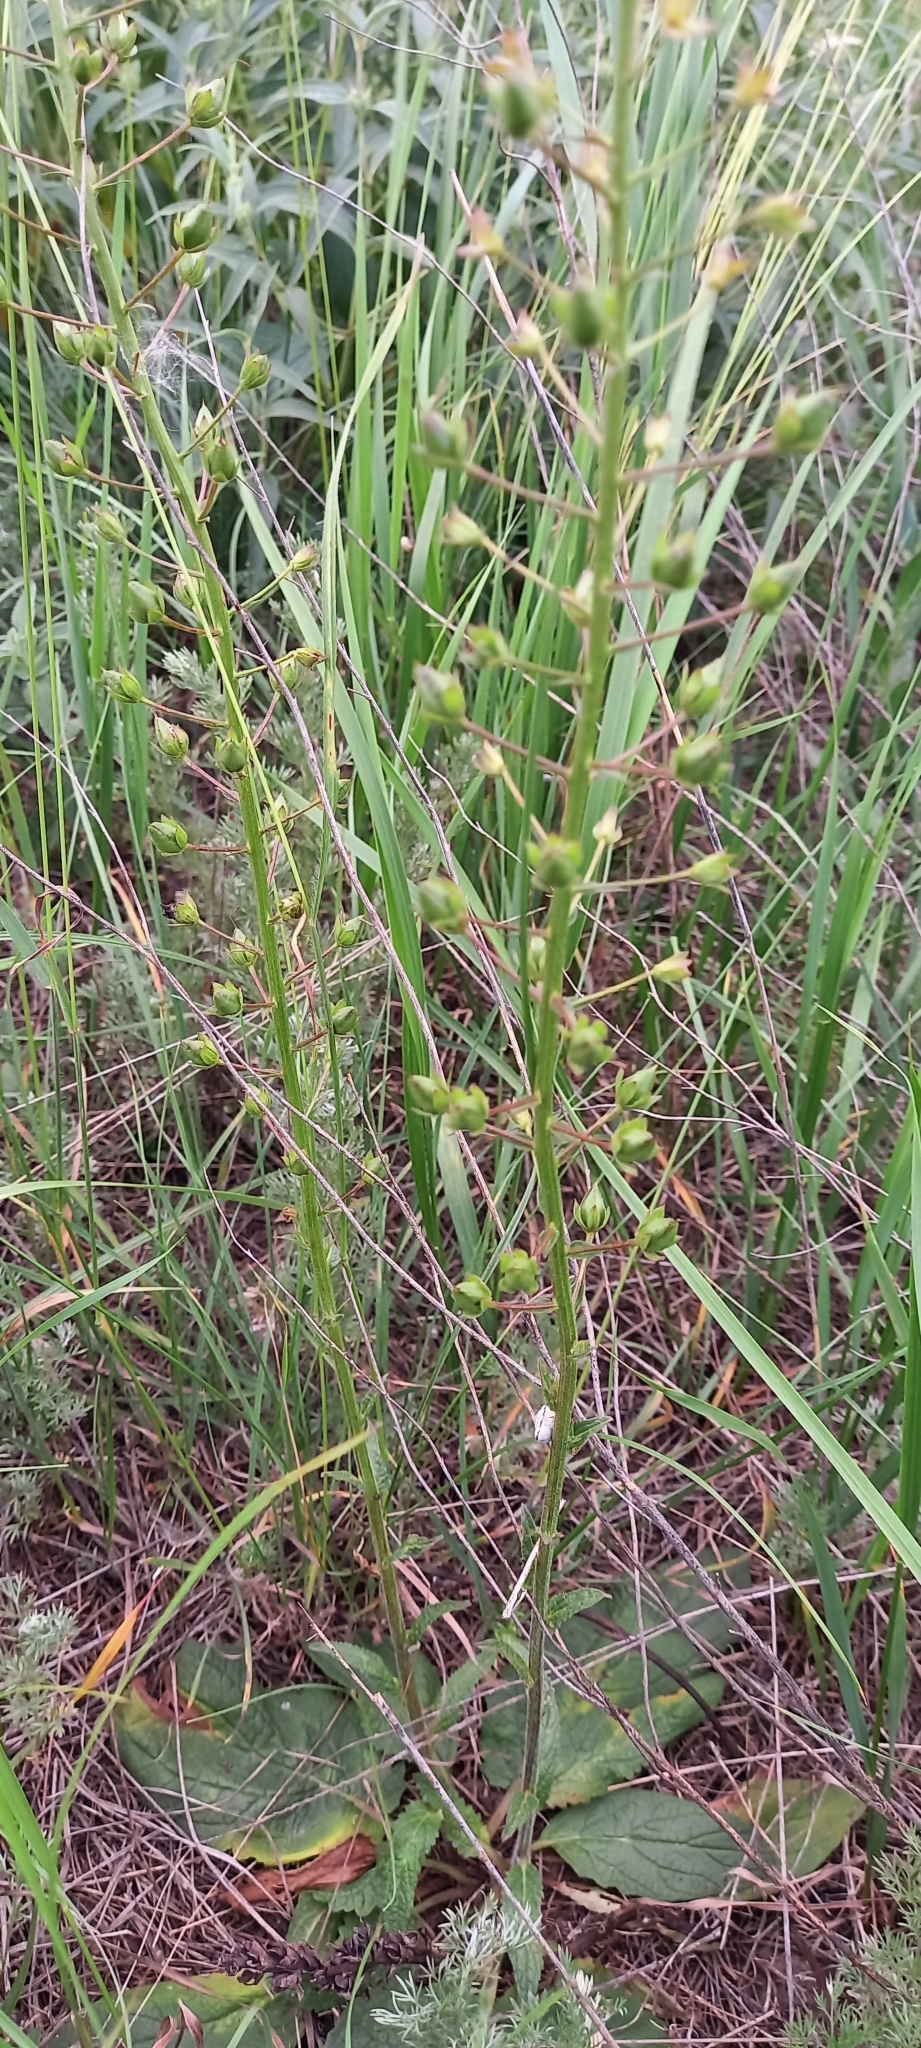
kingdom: Plantae
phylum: Tracheophyta
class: Magnoliopsida
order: Lamiales
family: Scrophulariaceae
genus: Verbascum
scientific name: Verbascum phoeniceum
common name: Purple mullein
